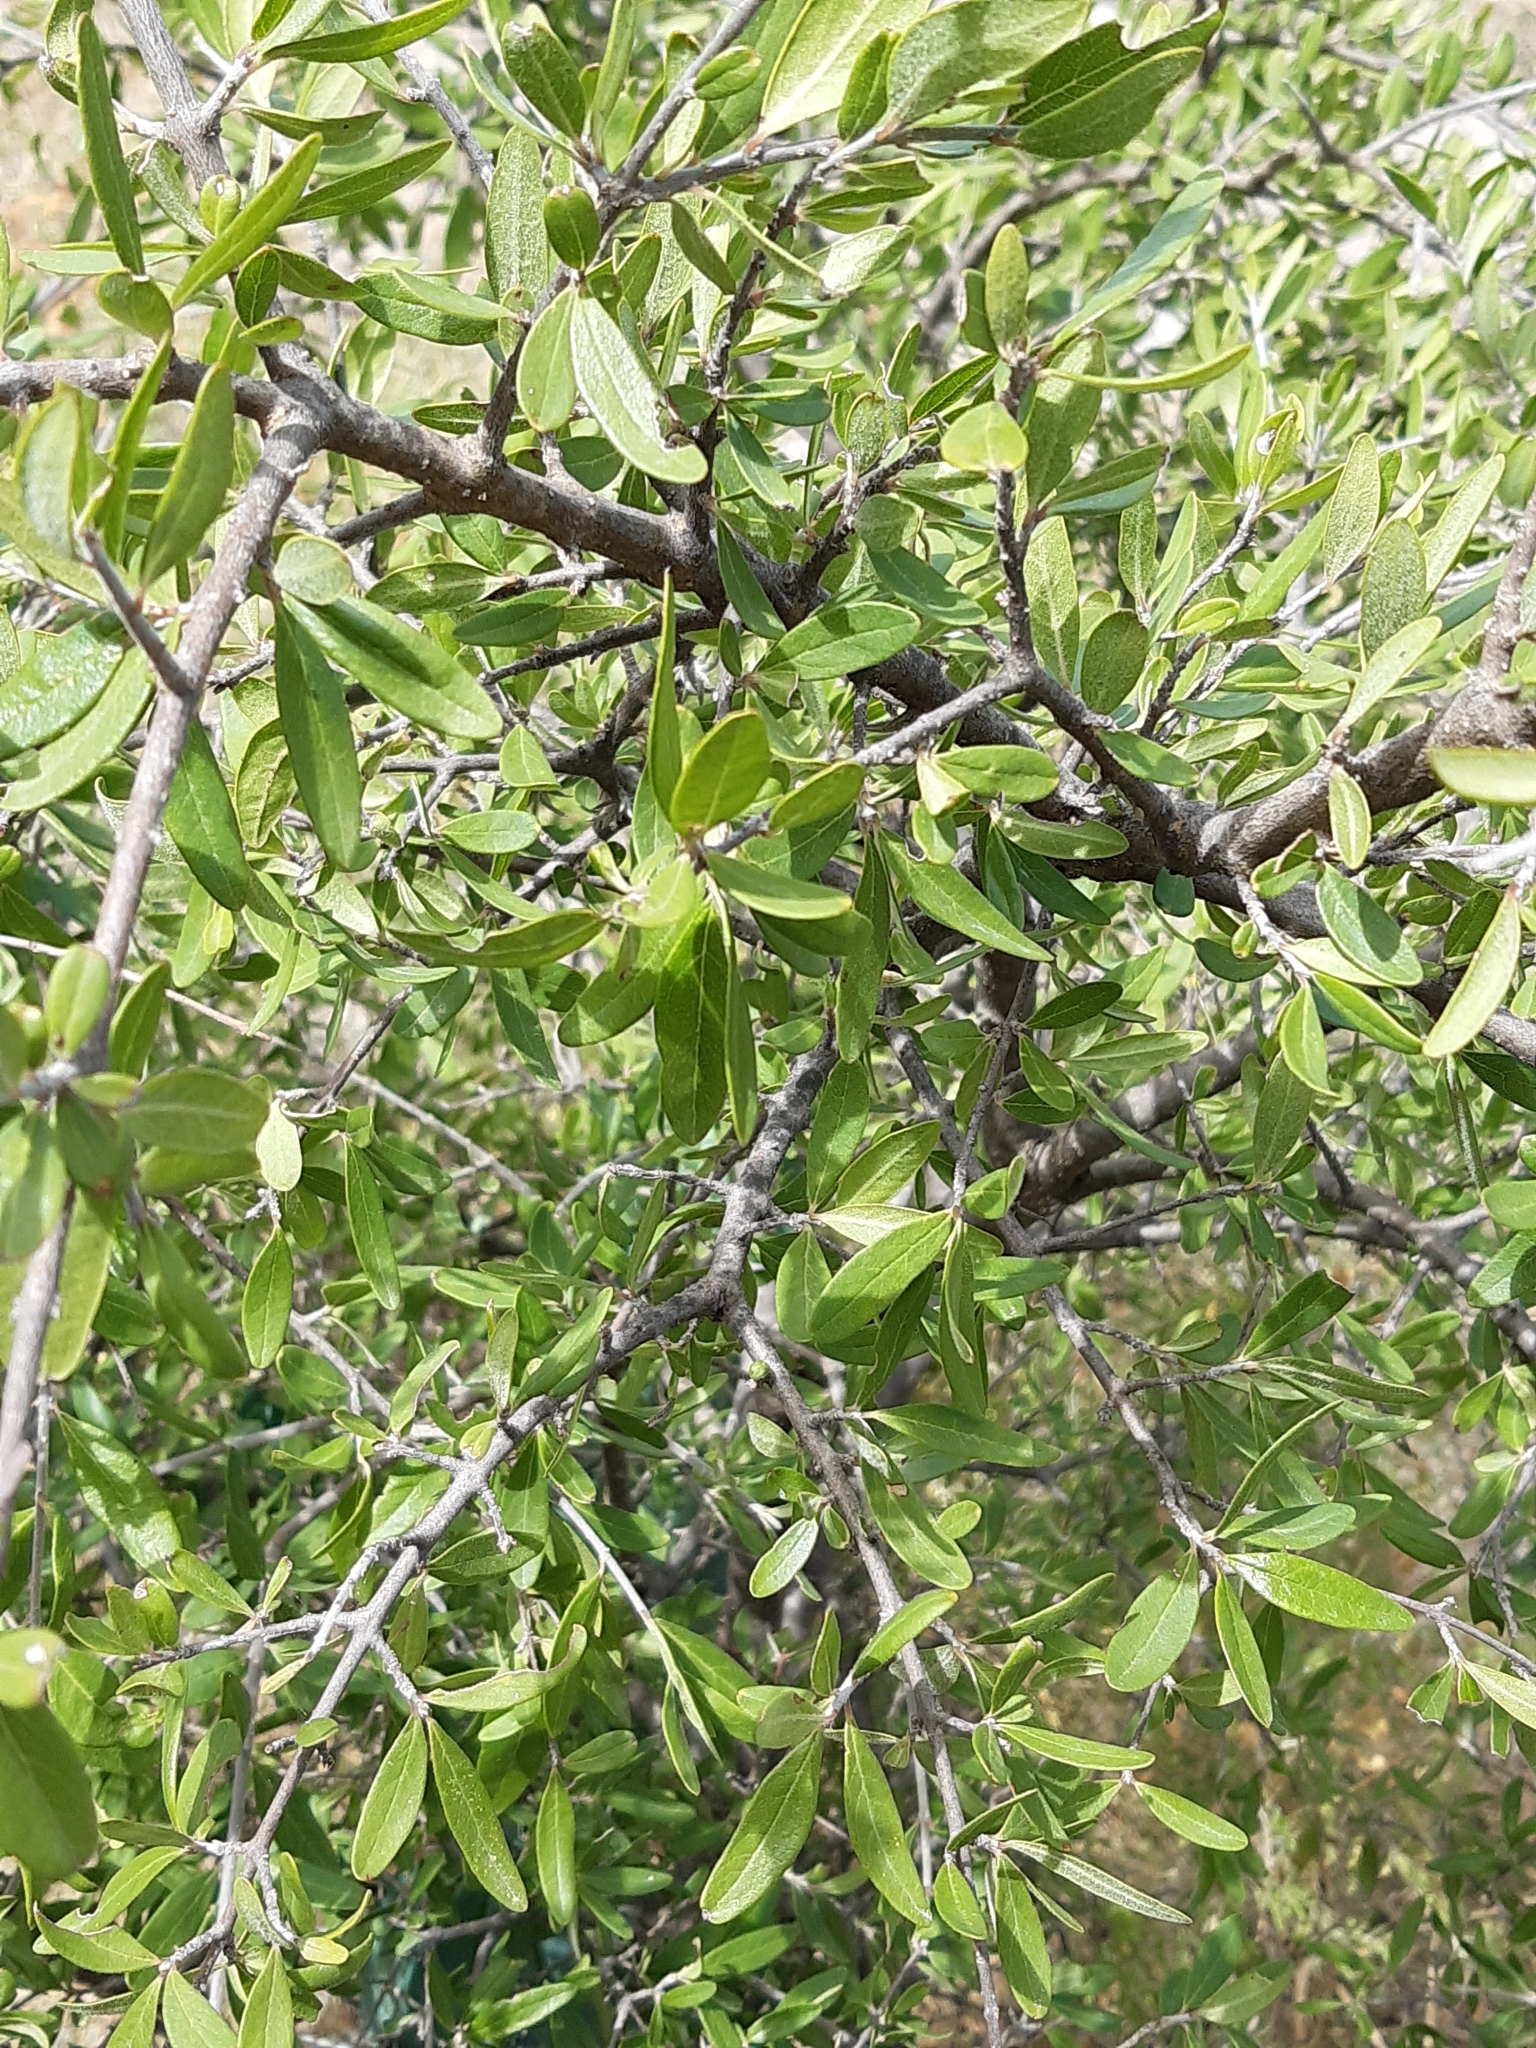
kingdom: Plantae
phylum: Tracheophyta
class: Magnoliopsida
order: Lamiales
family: Oleaceae
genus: Forestiera
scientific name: Forestiera phillyreoides
